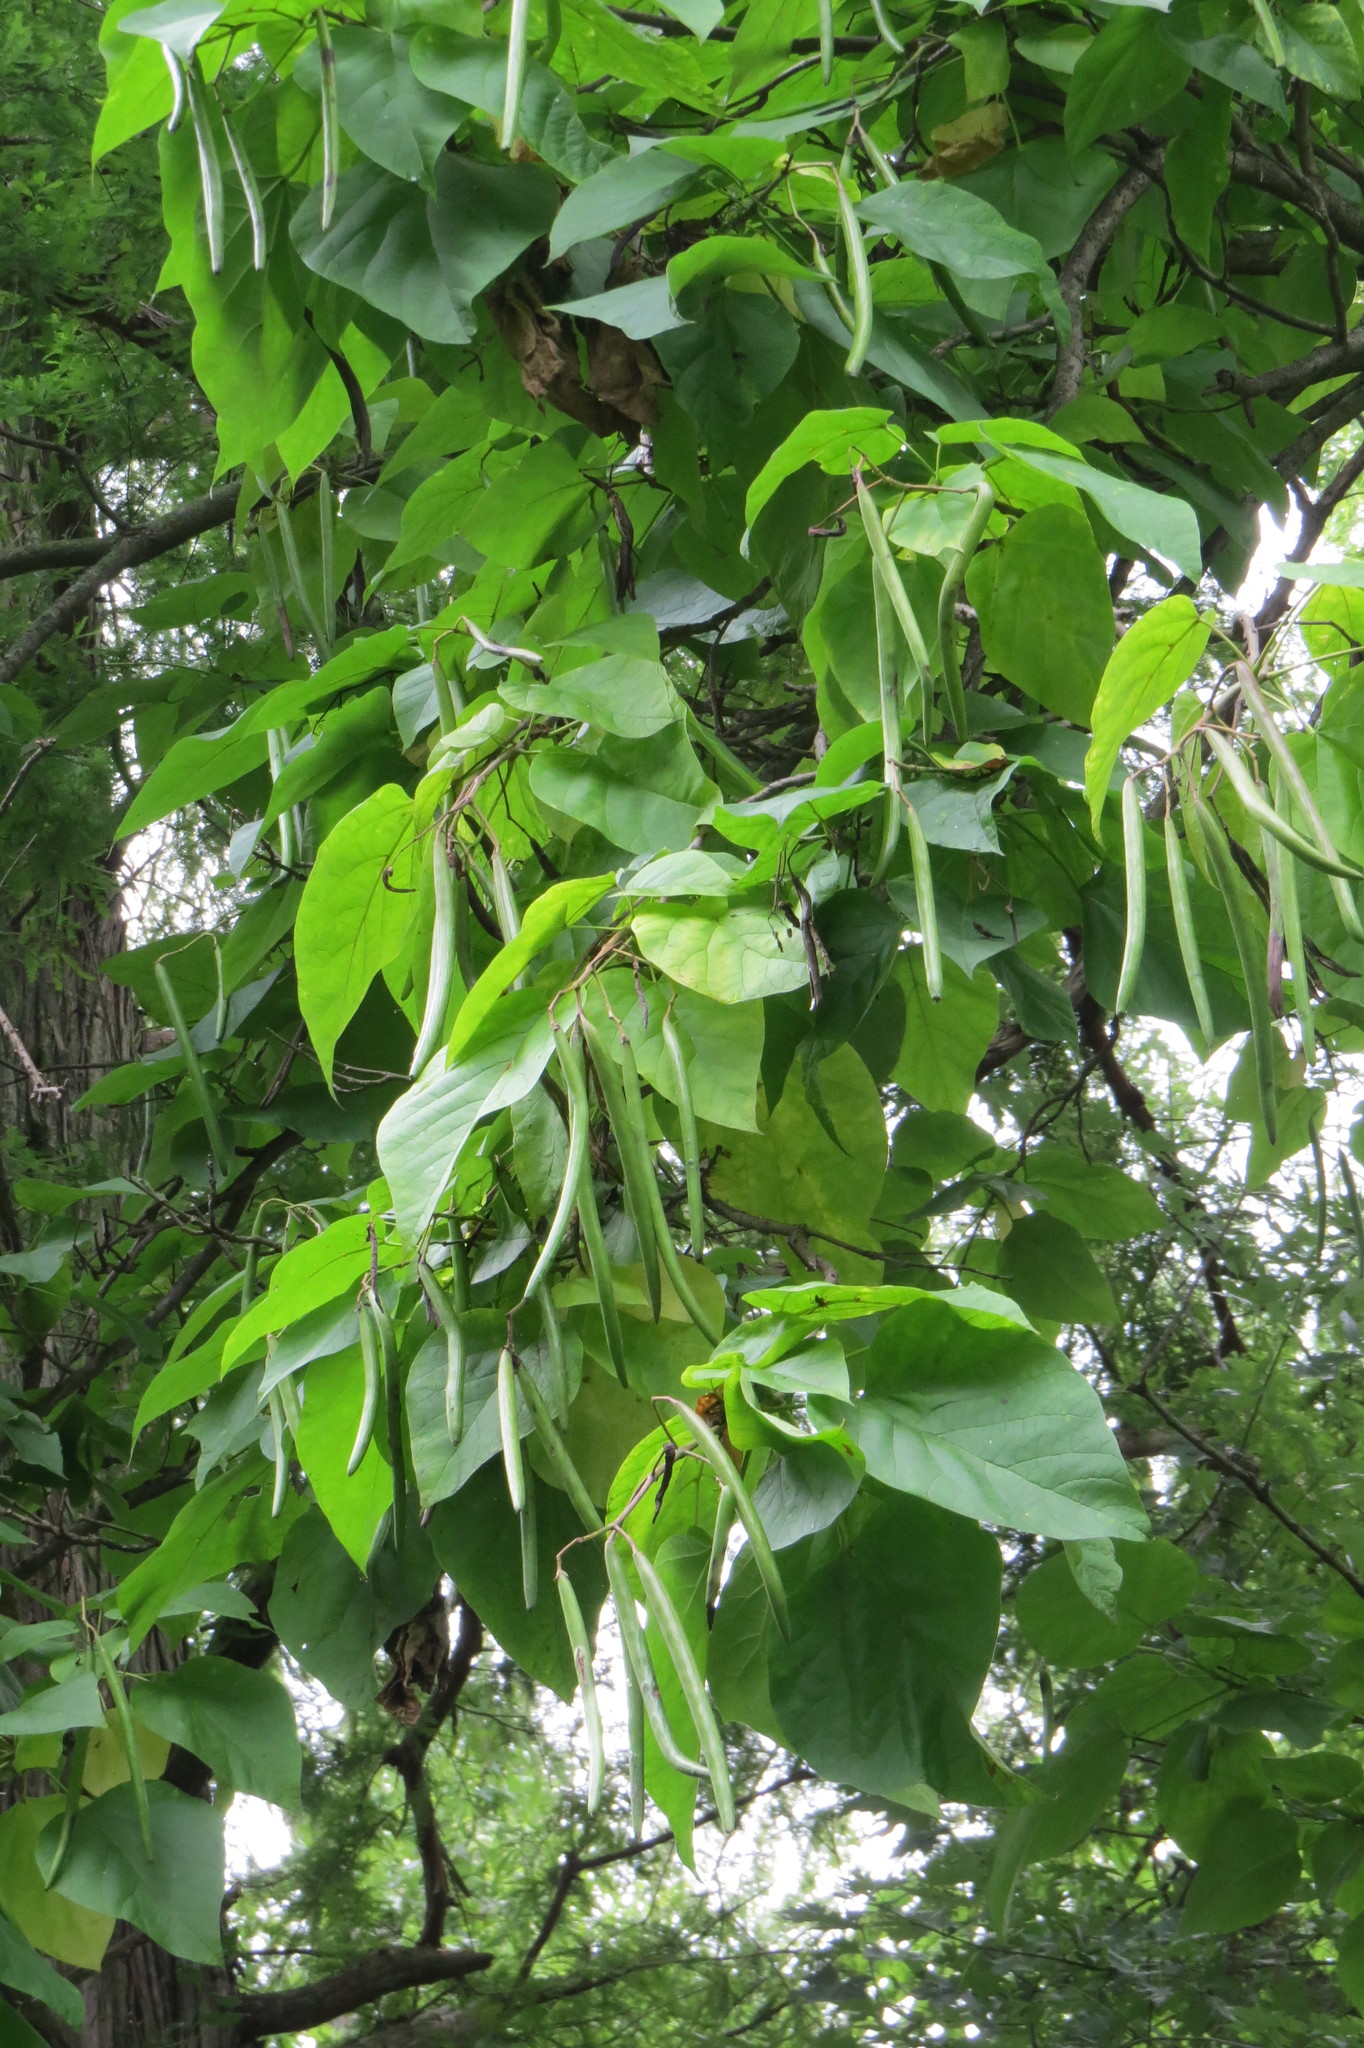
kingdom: Plantae
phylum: Tracheophyta
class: Magnoliopsida
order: Lamiales
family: Bignoniaceae
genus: Catalpa
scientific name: Catalpa speciosa
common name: Northern catalpa
